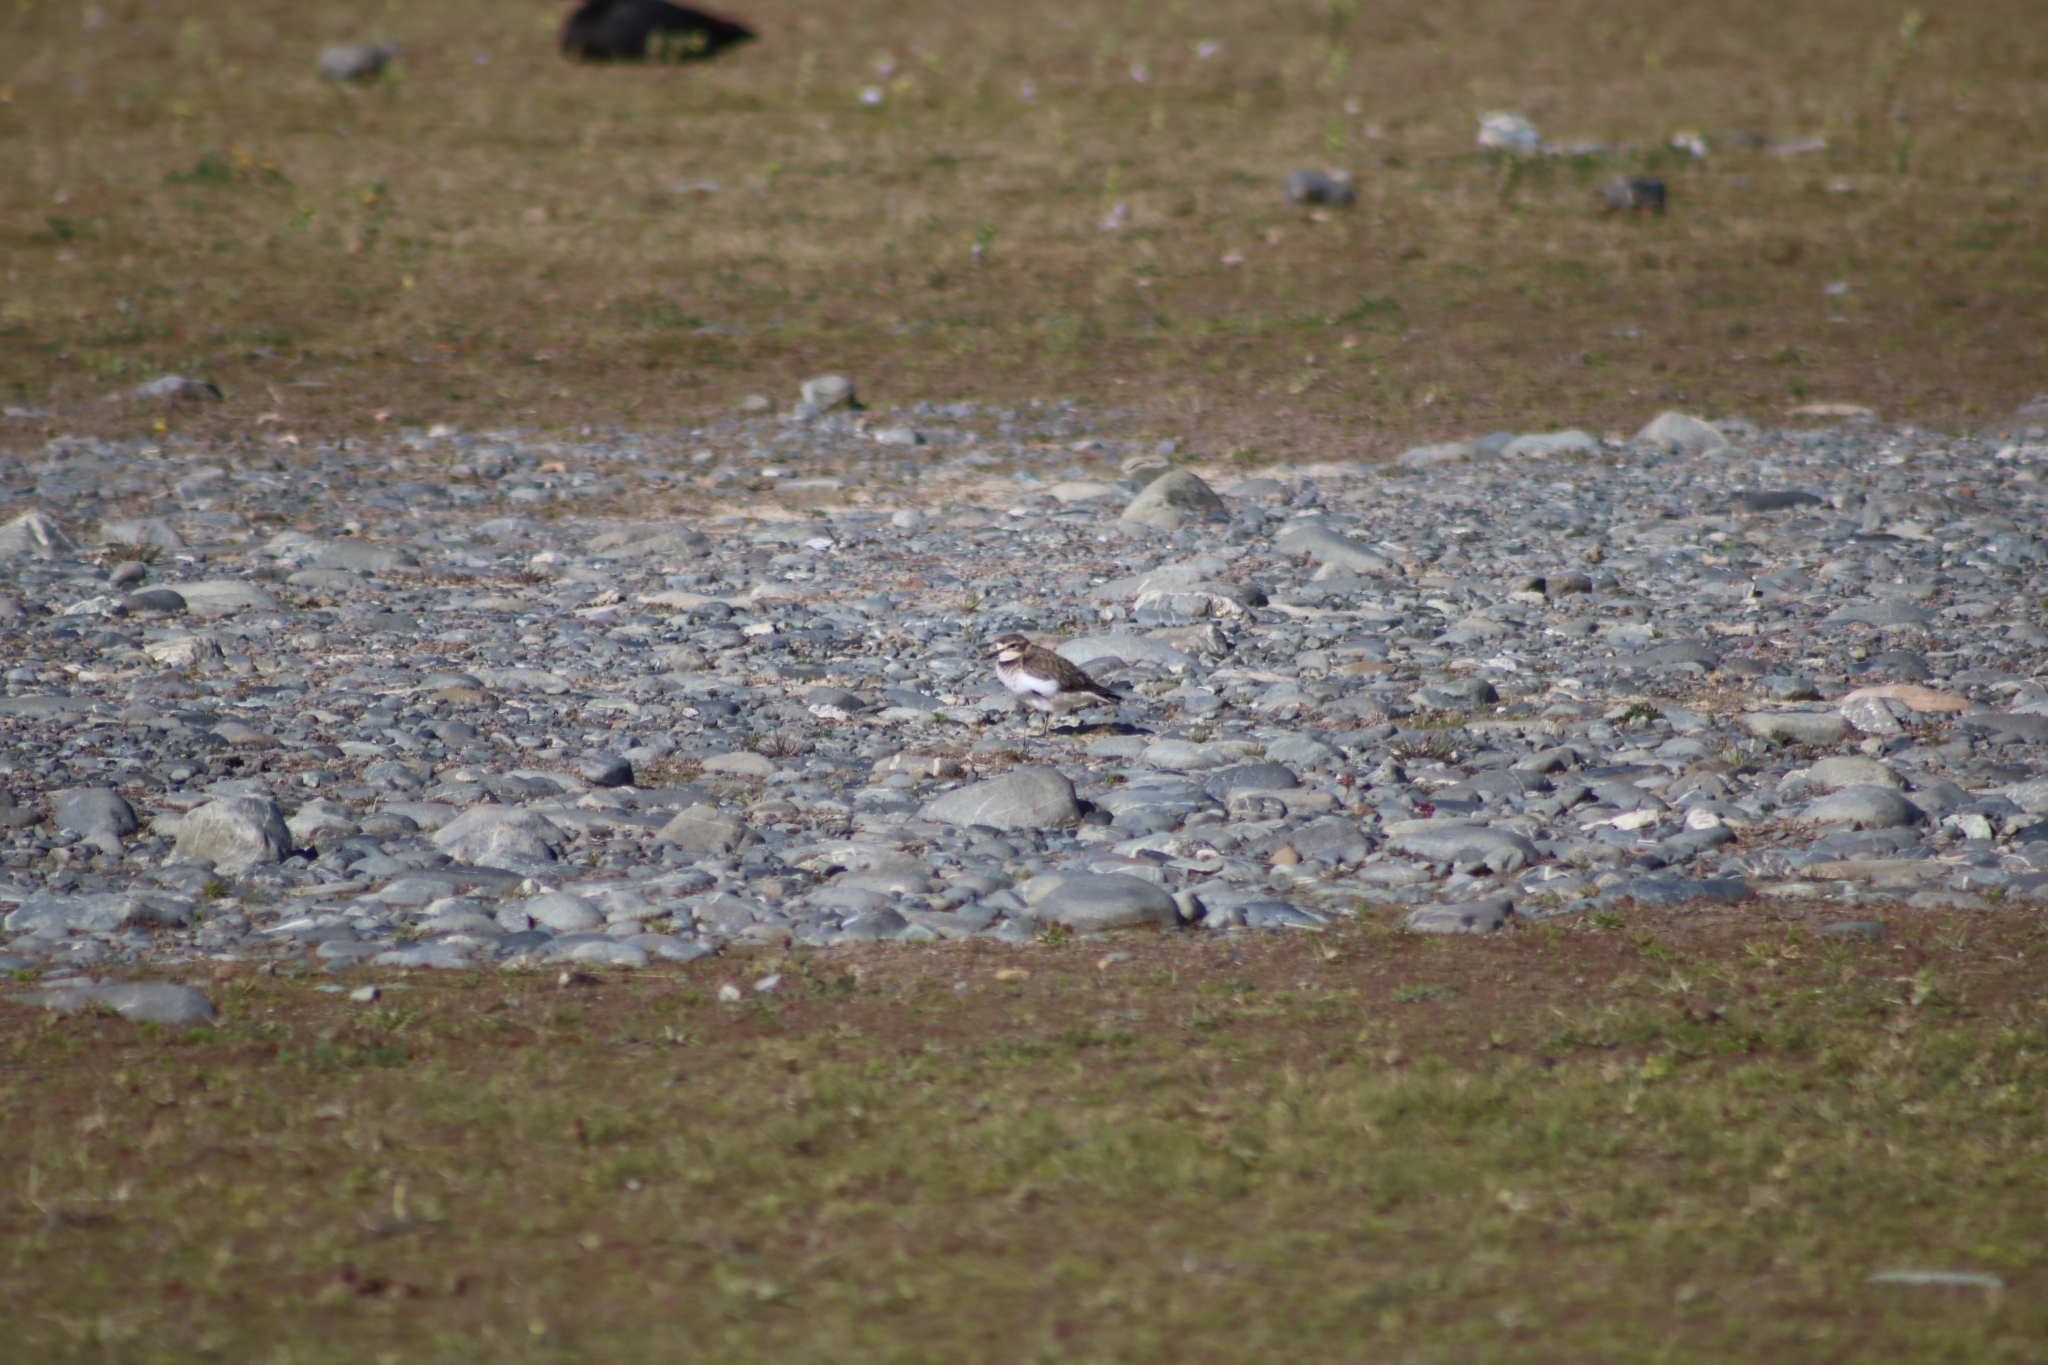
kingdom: Animalia
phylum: Chordata
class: Aves
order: Charadriiformes
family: Charadriidae
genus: Anarhynchus
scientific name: Anarhynchus
